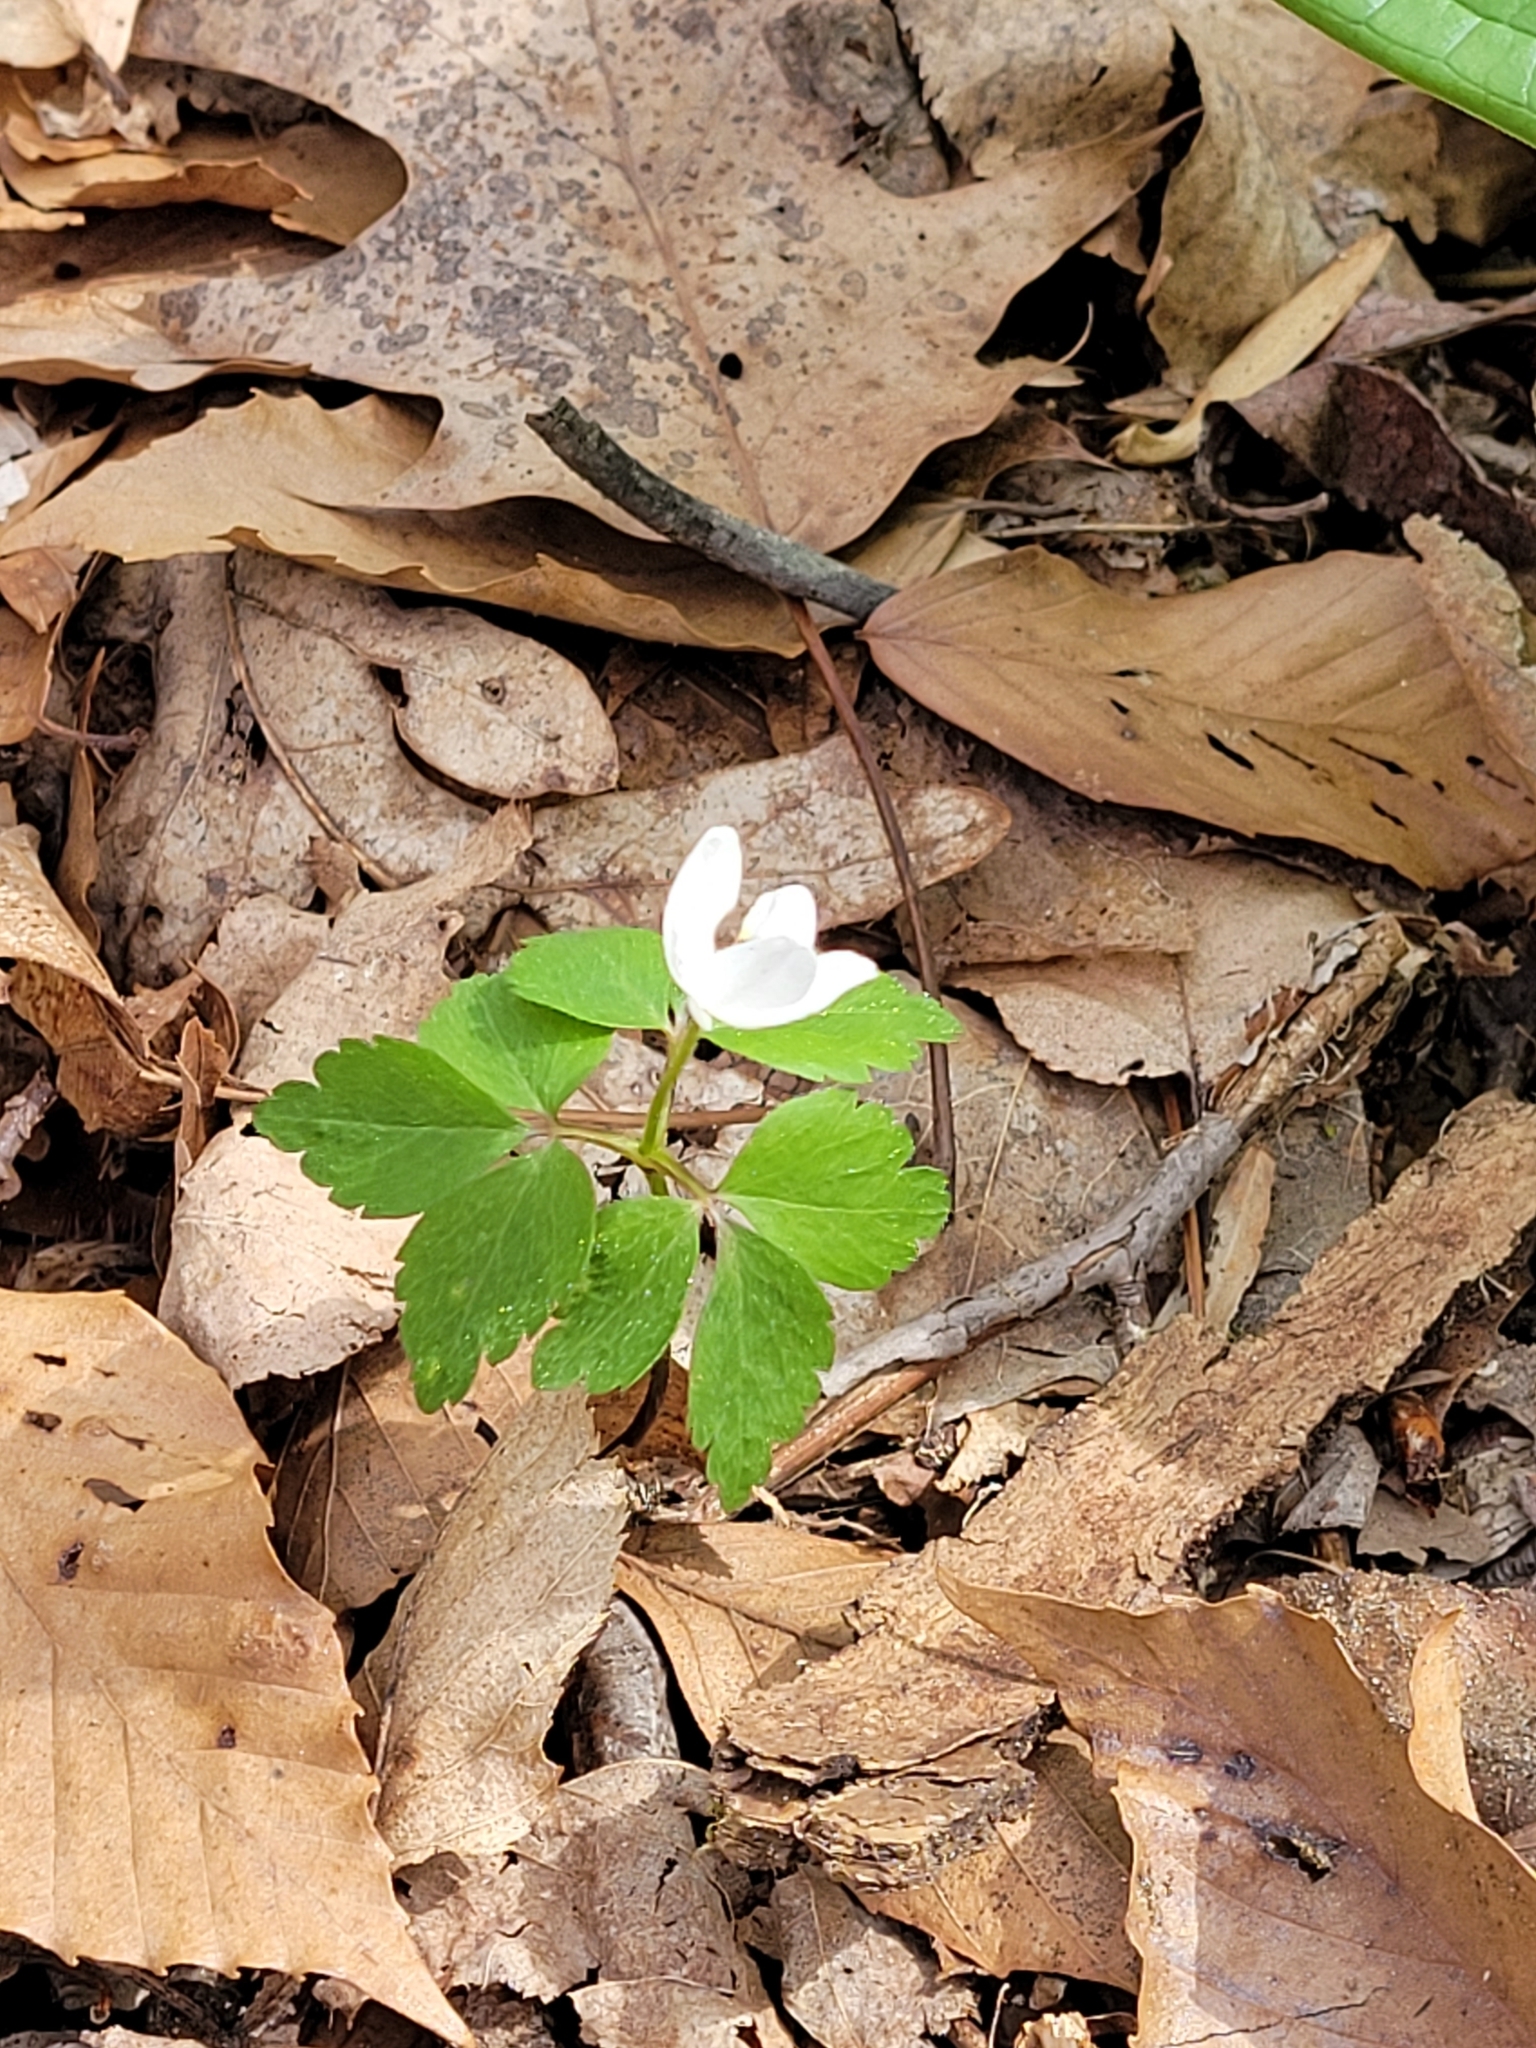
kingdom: Plantae
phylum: Tracheophyta
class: Magnoliopsida
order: Ranunculales
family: Ranunculaceae
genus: Anemone
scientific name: Anemone quinquefolia
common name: Wood anemone
